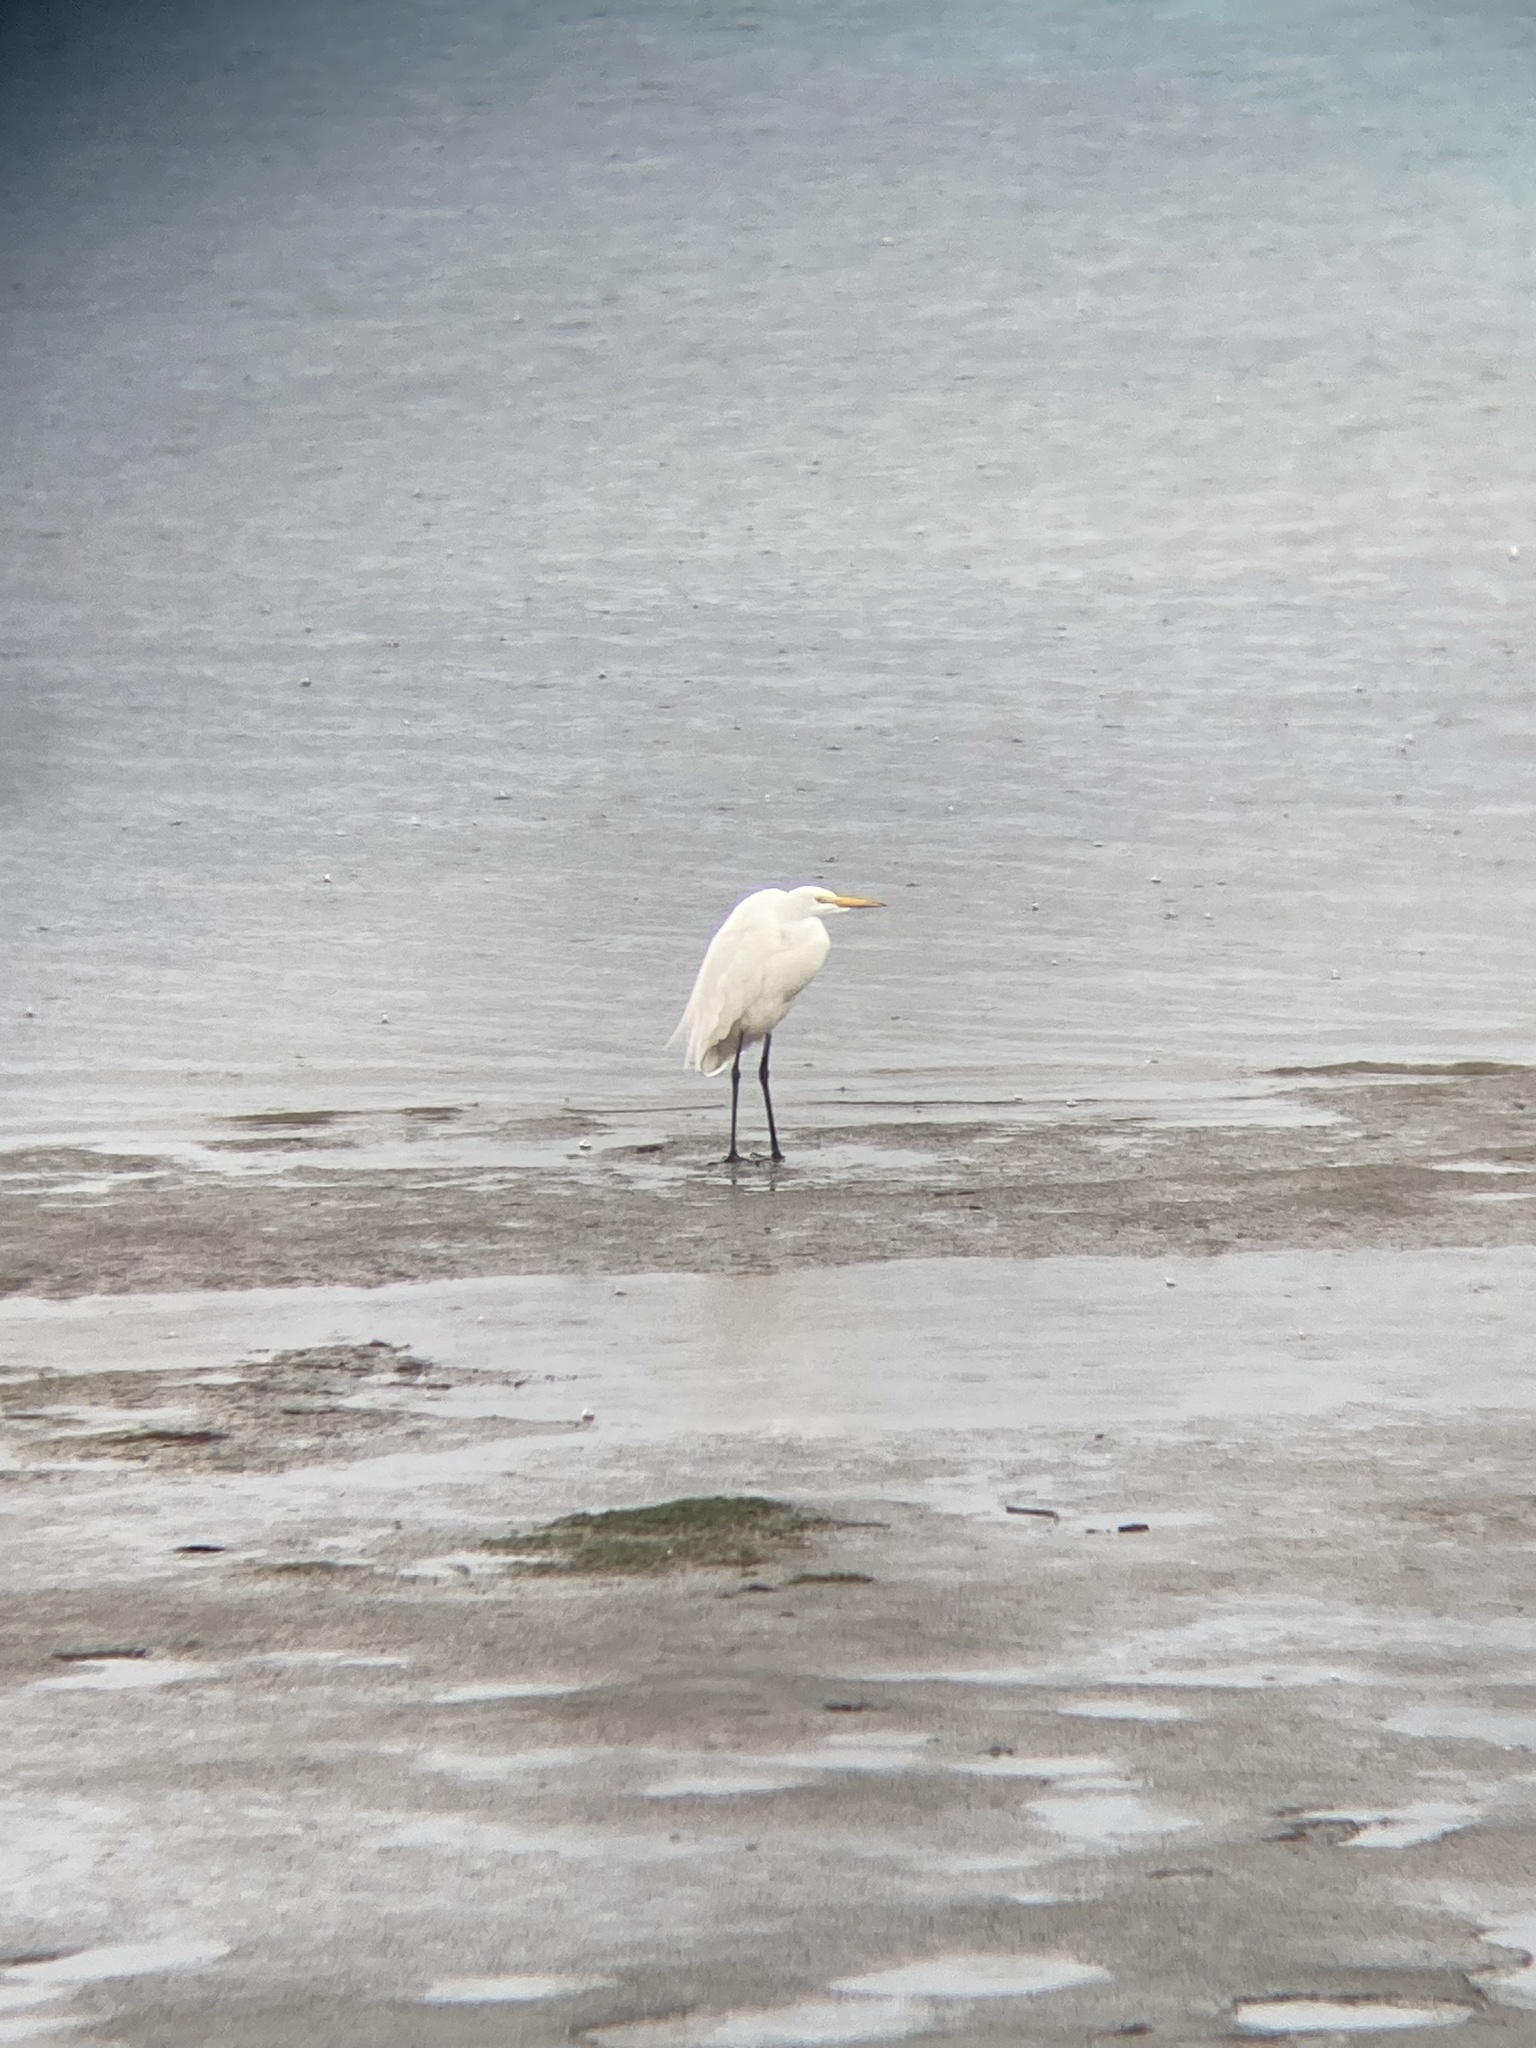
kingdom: Animalia
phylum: Chordata
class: Aves
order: Pelecaniformes
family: Ardeidae
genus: Ardea
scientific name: Ardea alba
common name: Great egret
